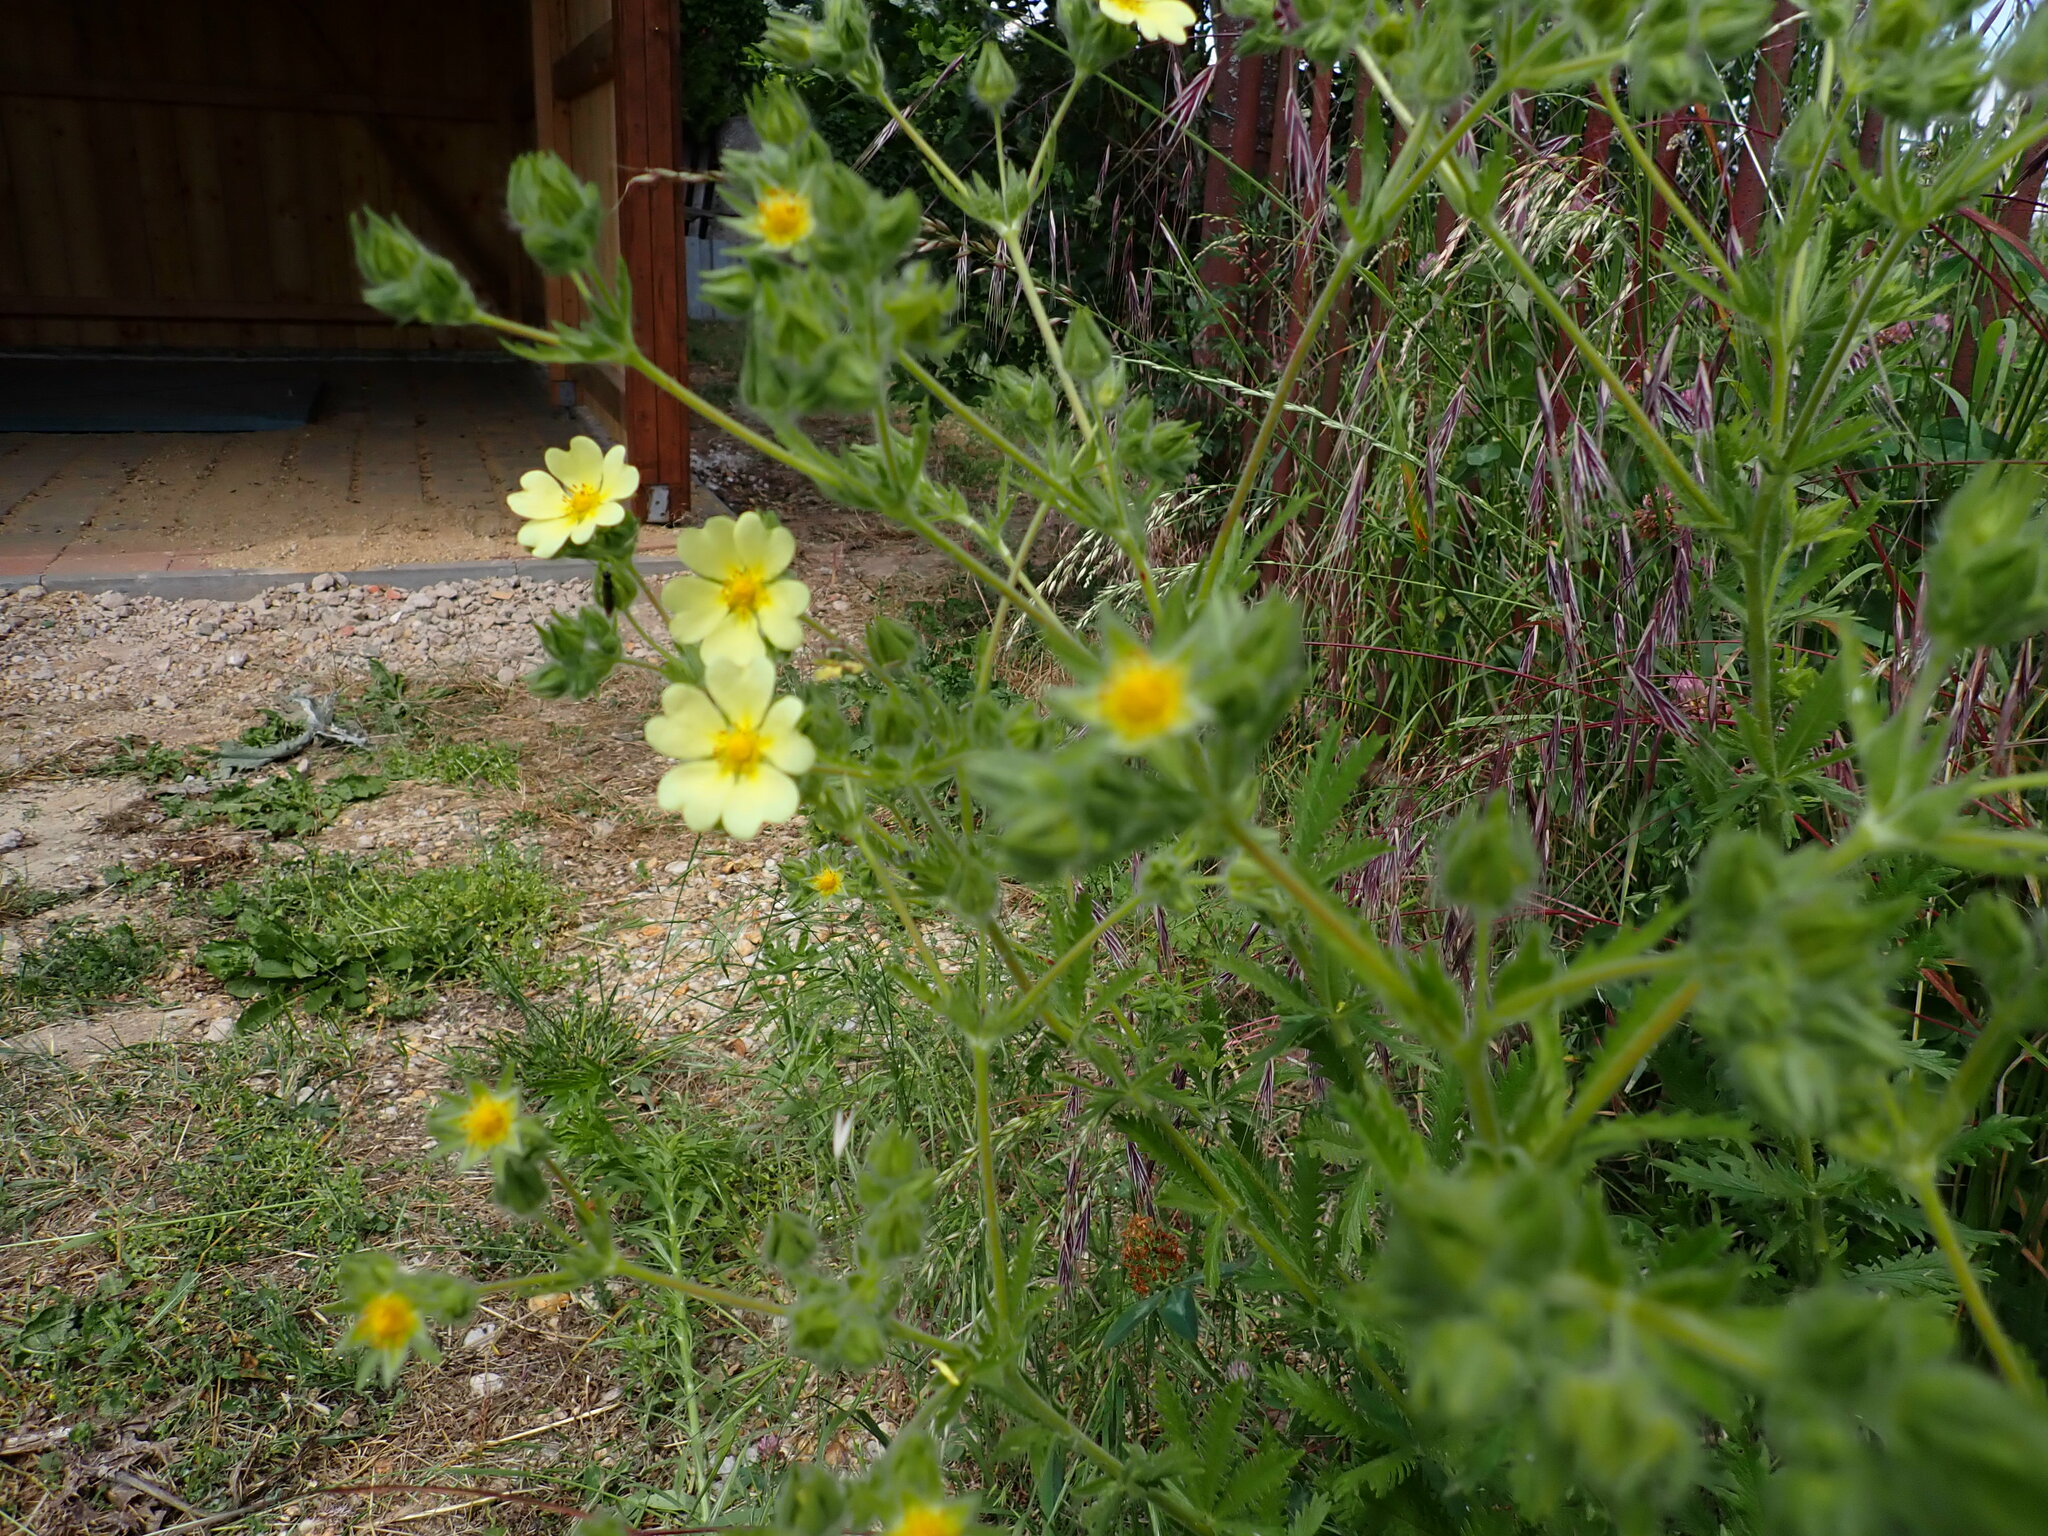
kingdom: Plantae
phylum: Tracheophyta
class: Magnoliopsida
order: Rosales
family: Rosaceae
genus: Potentilla
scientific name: Potentilla recta
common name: Sulphur cinquefoil
